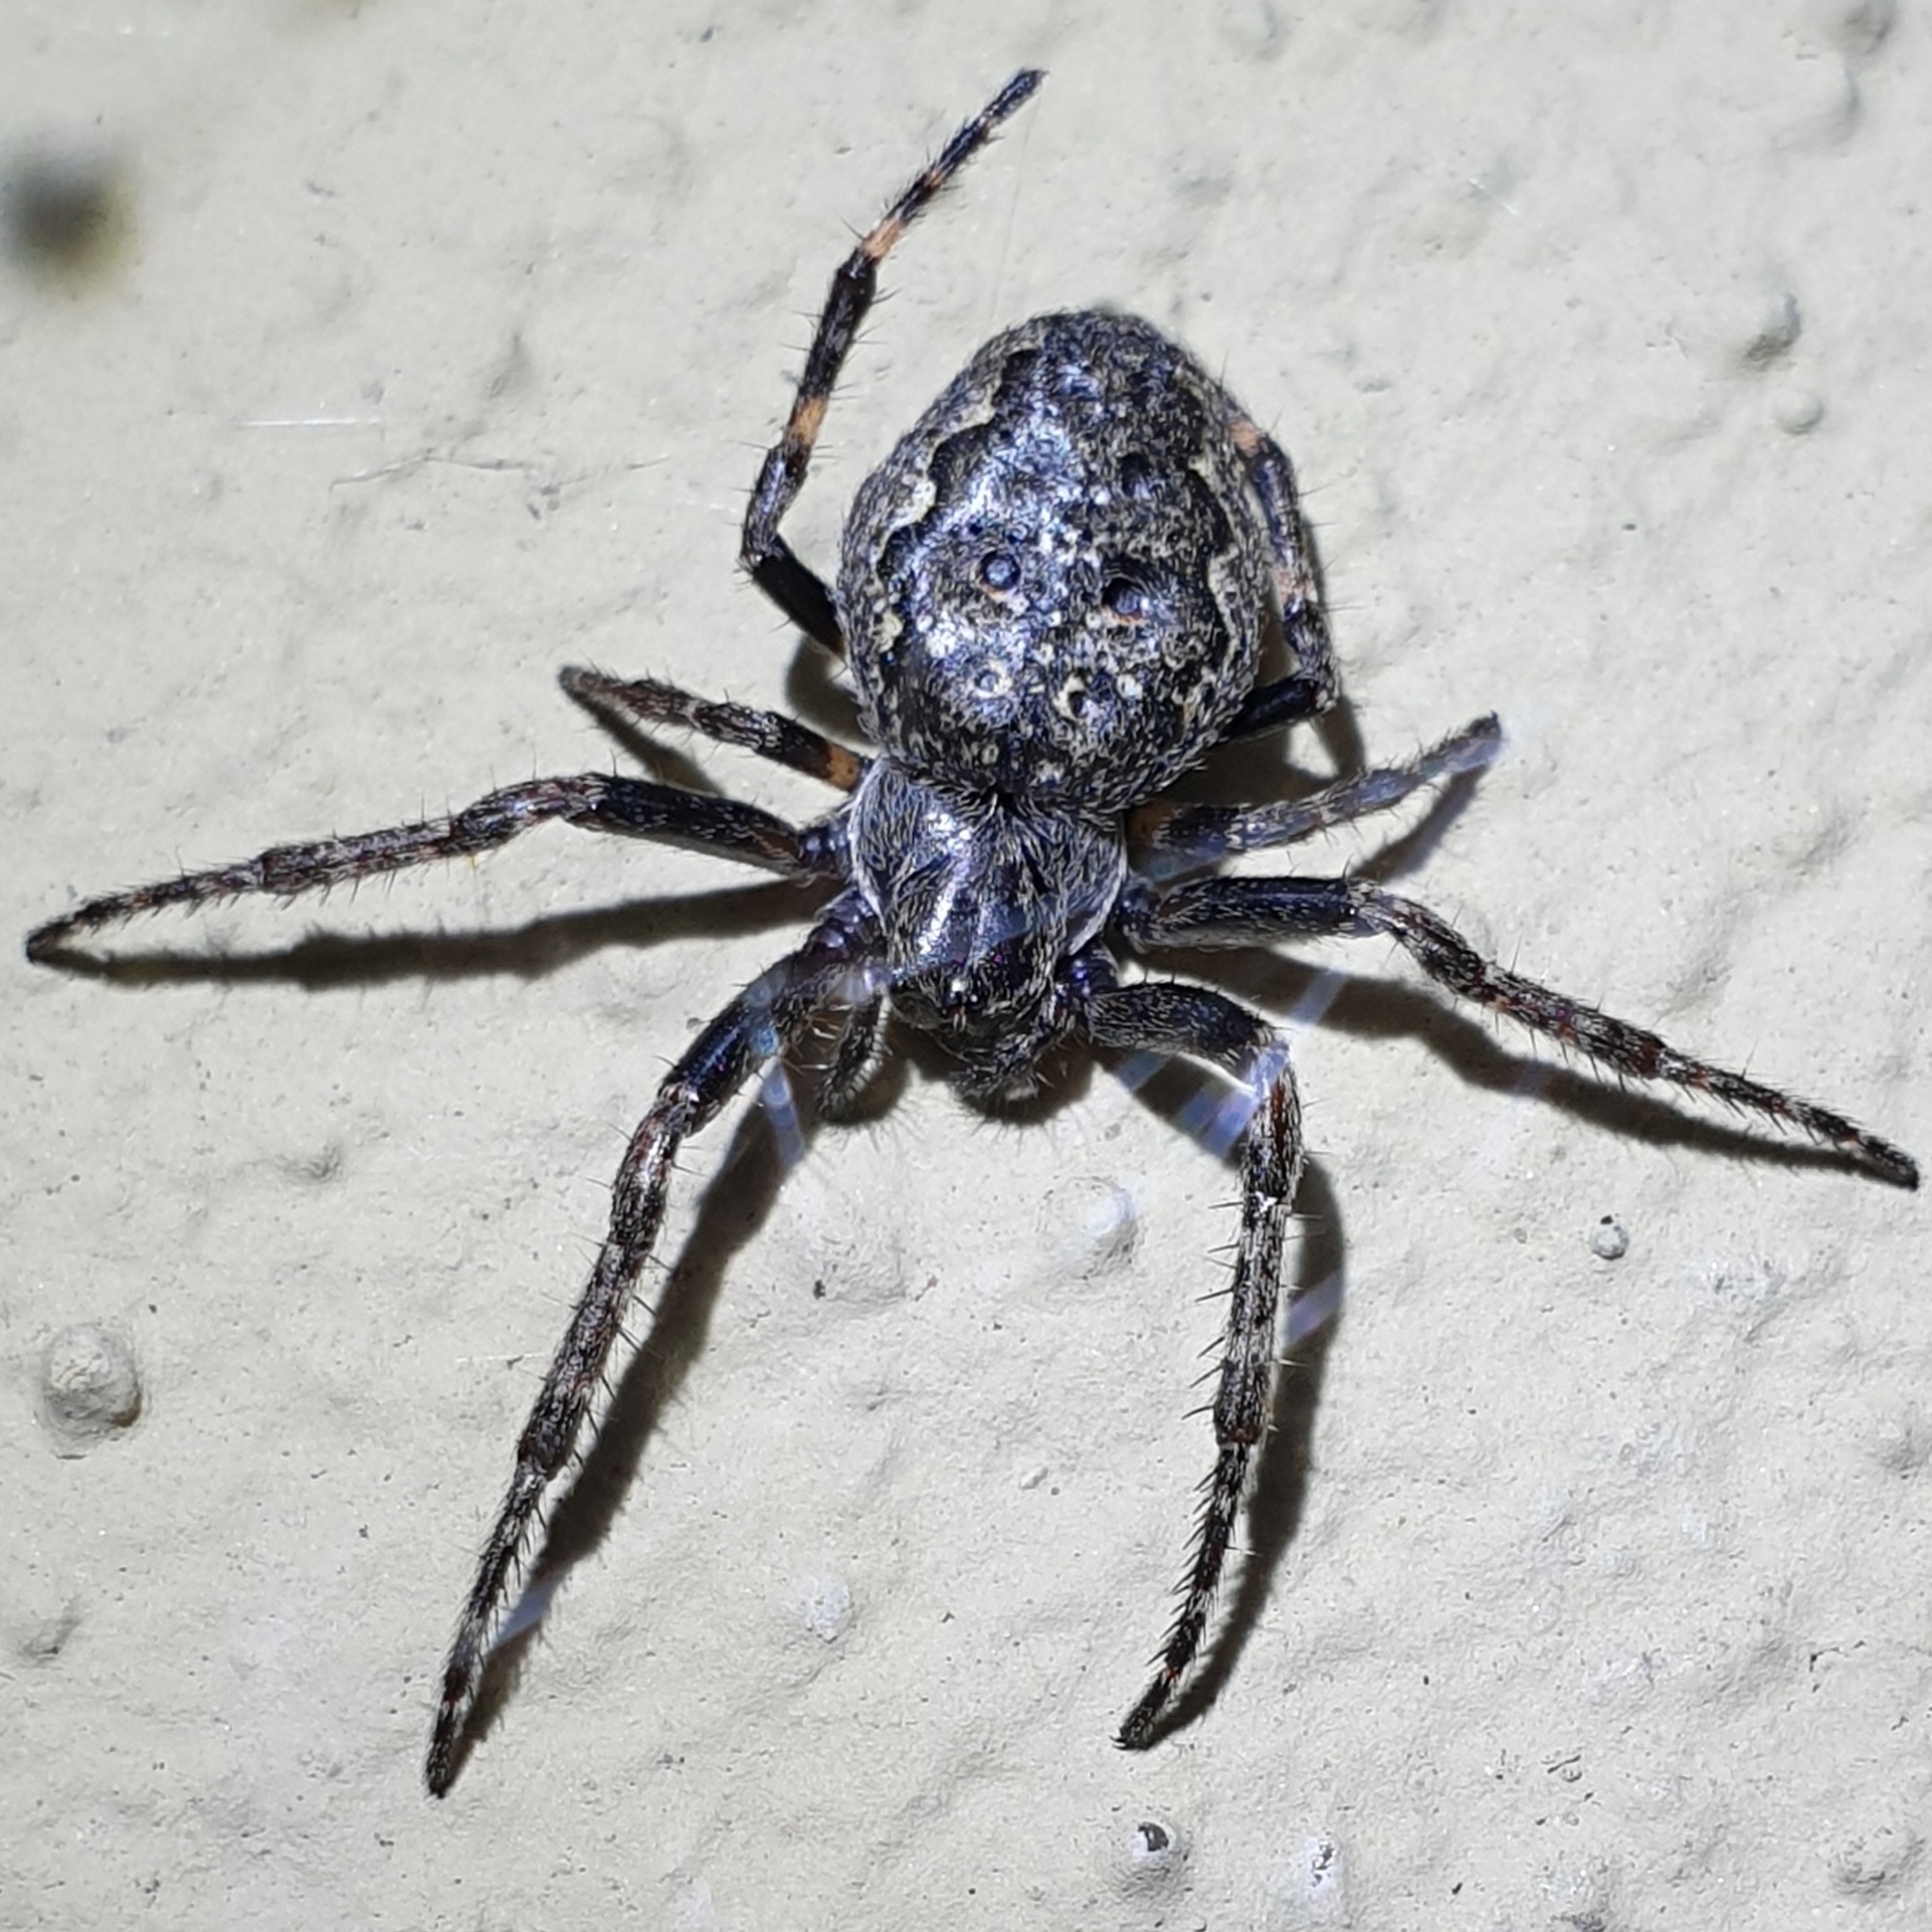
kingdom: Animalia
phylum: Arthropoda
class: Arachnida
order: Araneae
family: Araneidae
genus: Nuctenea
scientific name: Nuctenea umbratica
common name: Toad spider
